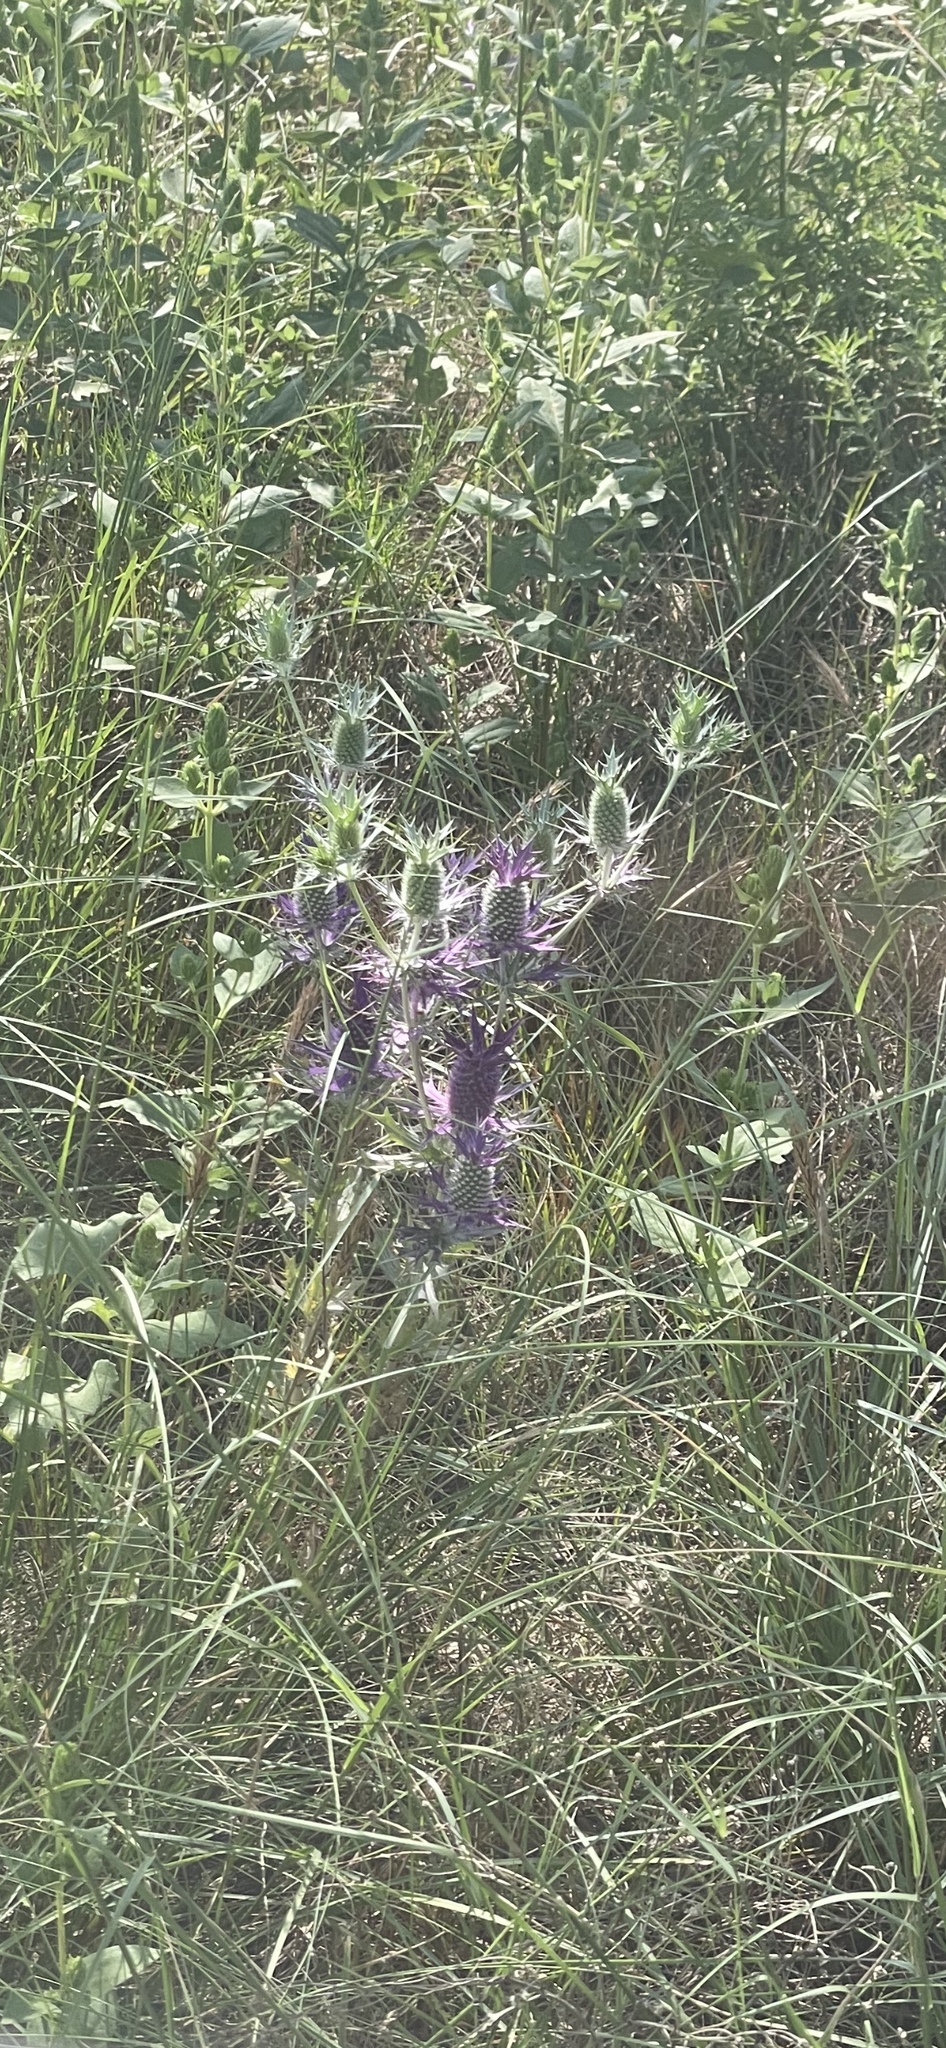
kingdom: Plantae
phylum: Tracheophyta
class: Magnoliopsida
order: Apiales
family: Apiaceae
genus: Eryngium
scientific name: Eryngium leavenworthii
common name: Leavenworth's eryngo
